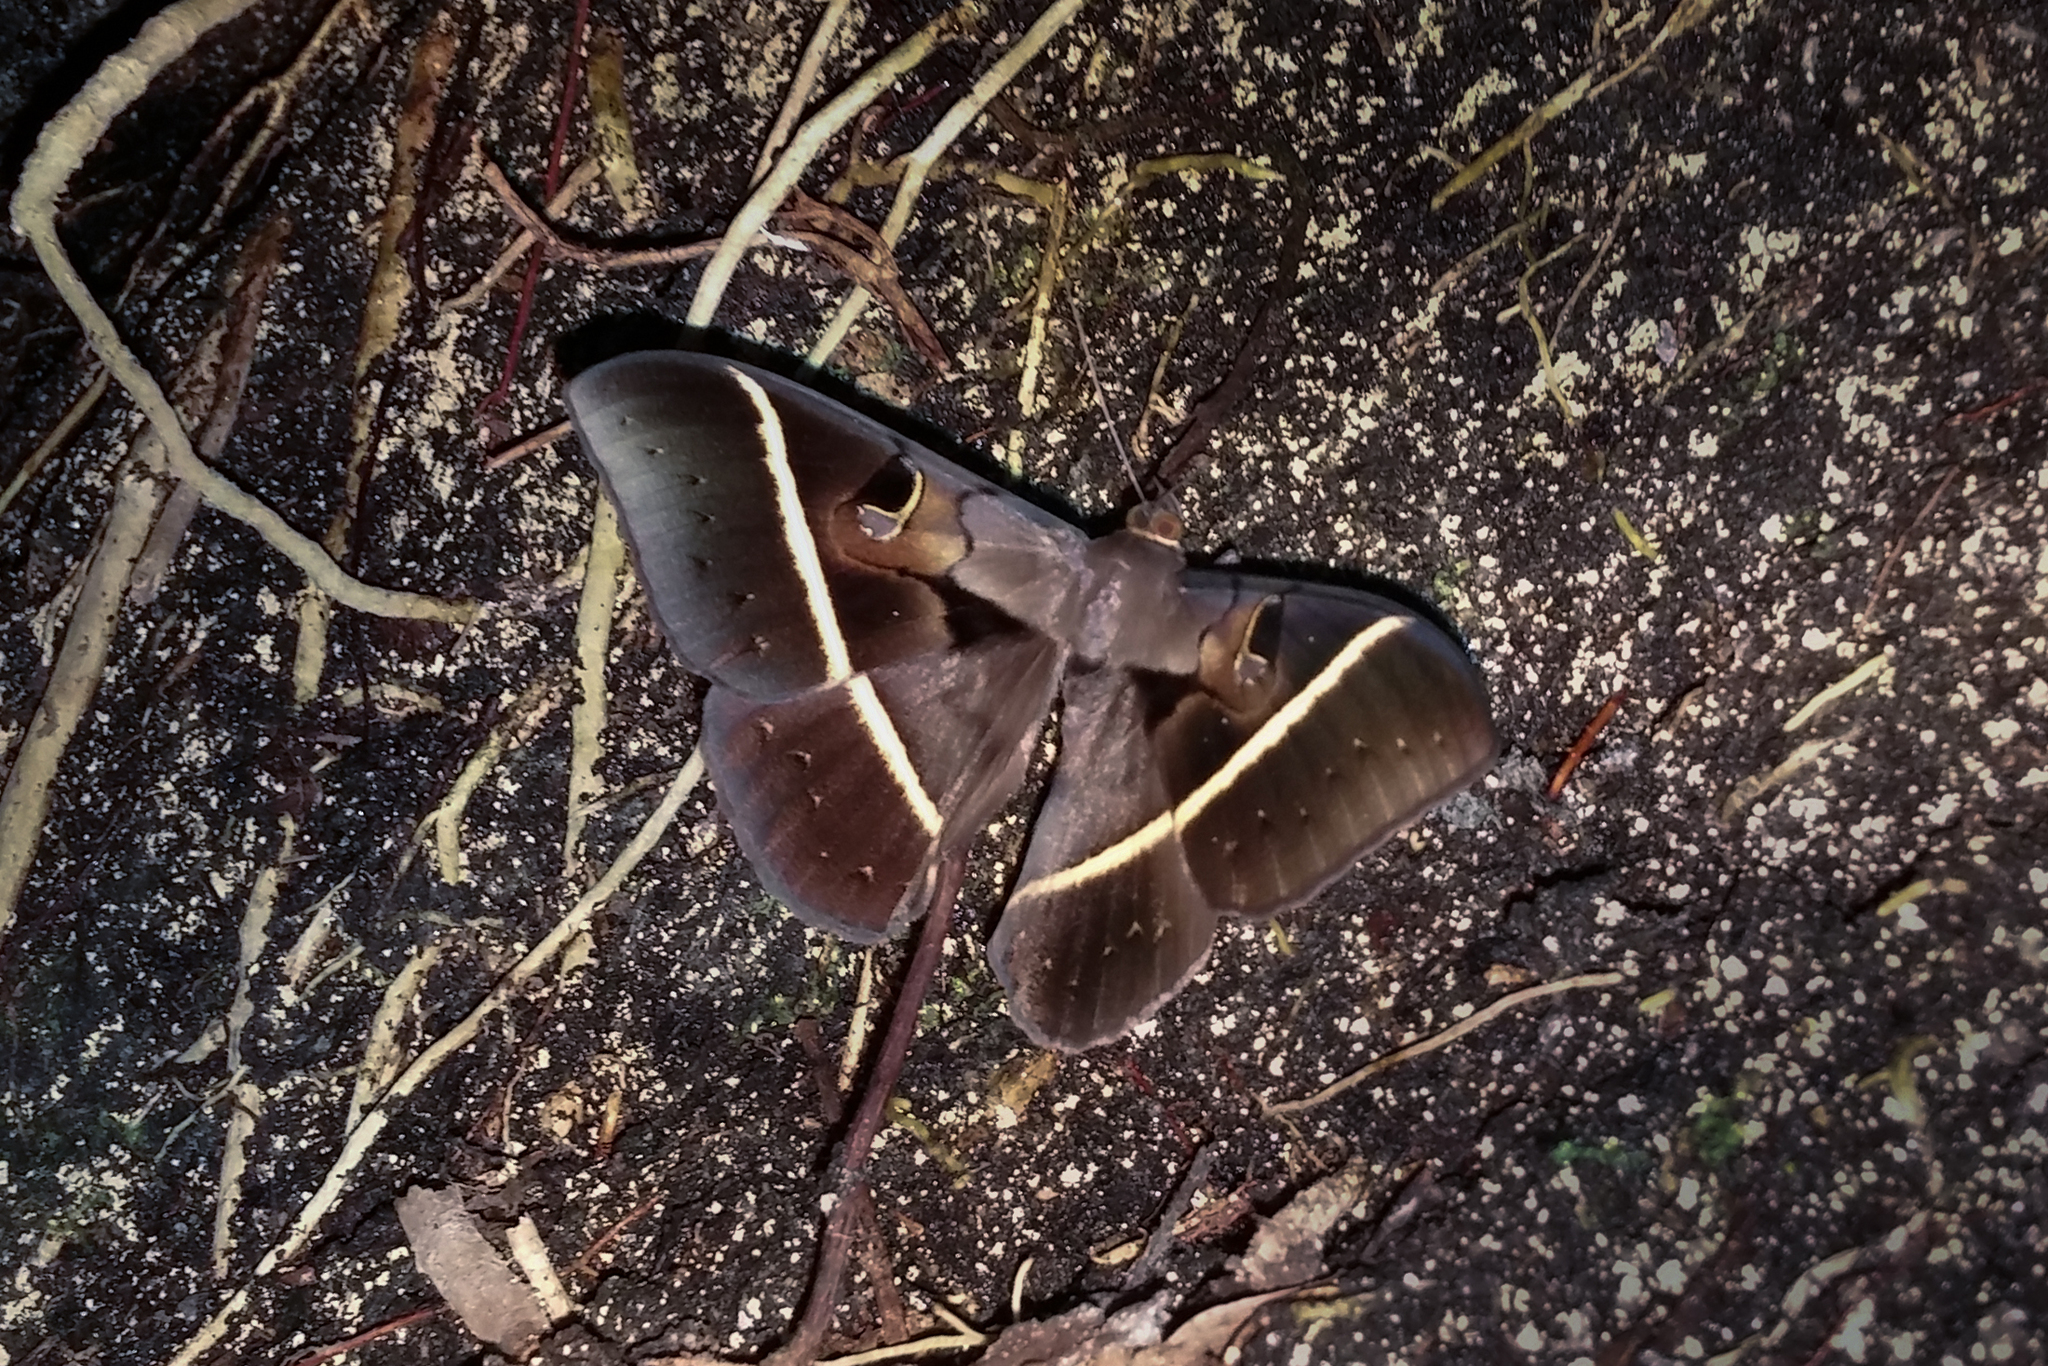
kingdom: Animalia
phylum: Arthropoda
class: Insecta
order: Lepidoptera
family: Erebidae
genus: Cyligramma
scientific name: Cyligramma joa
